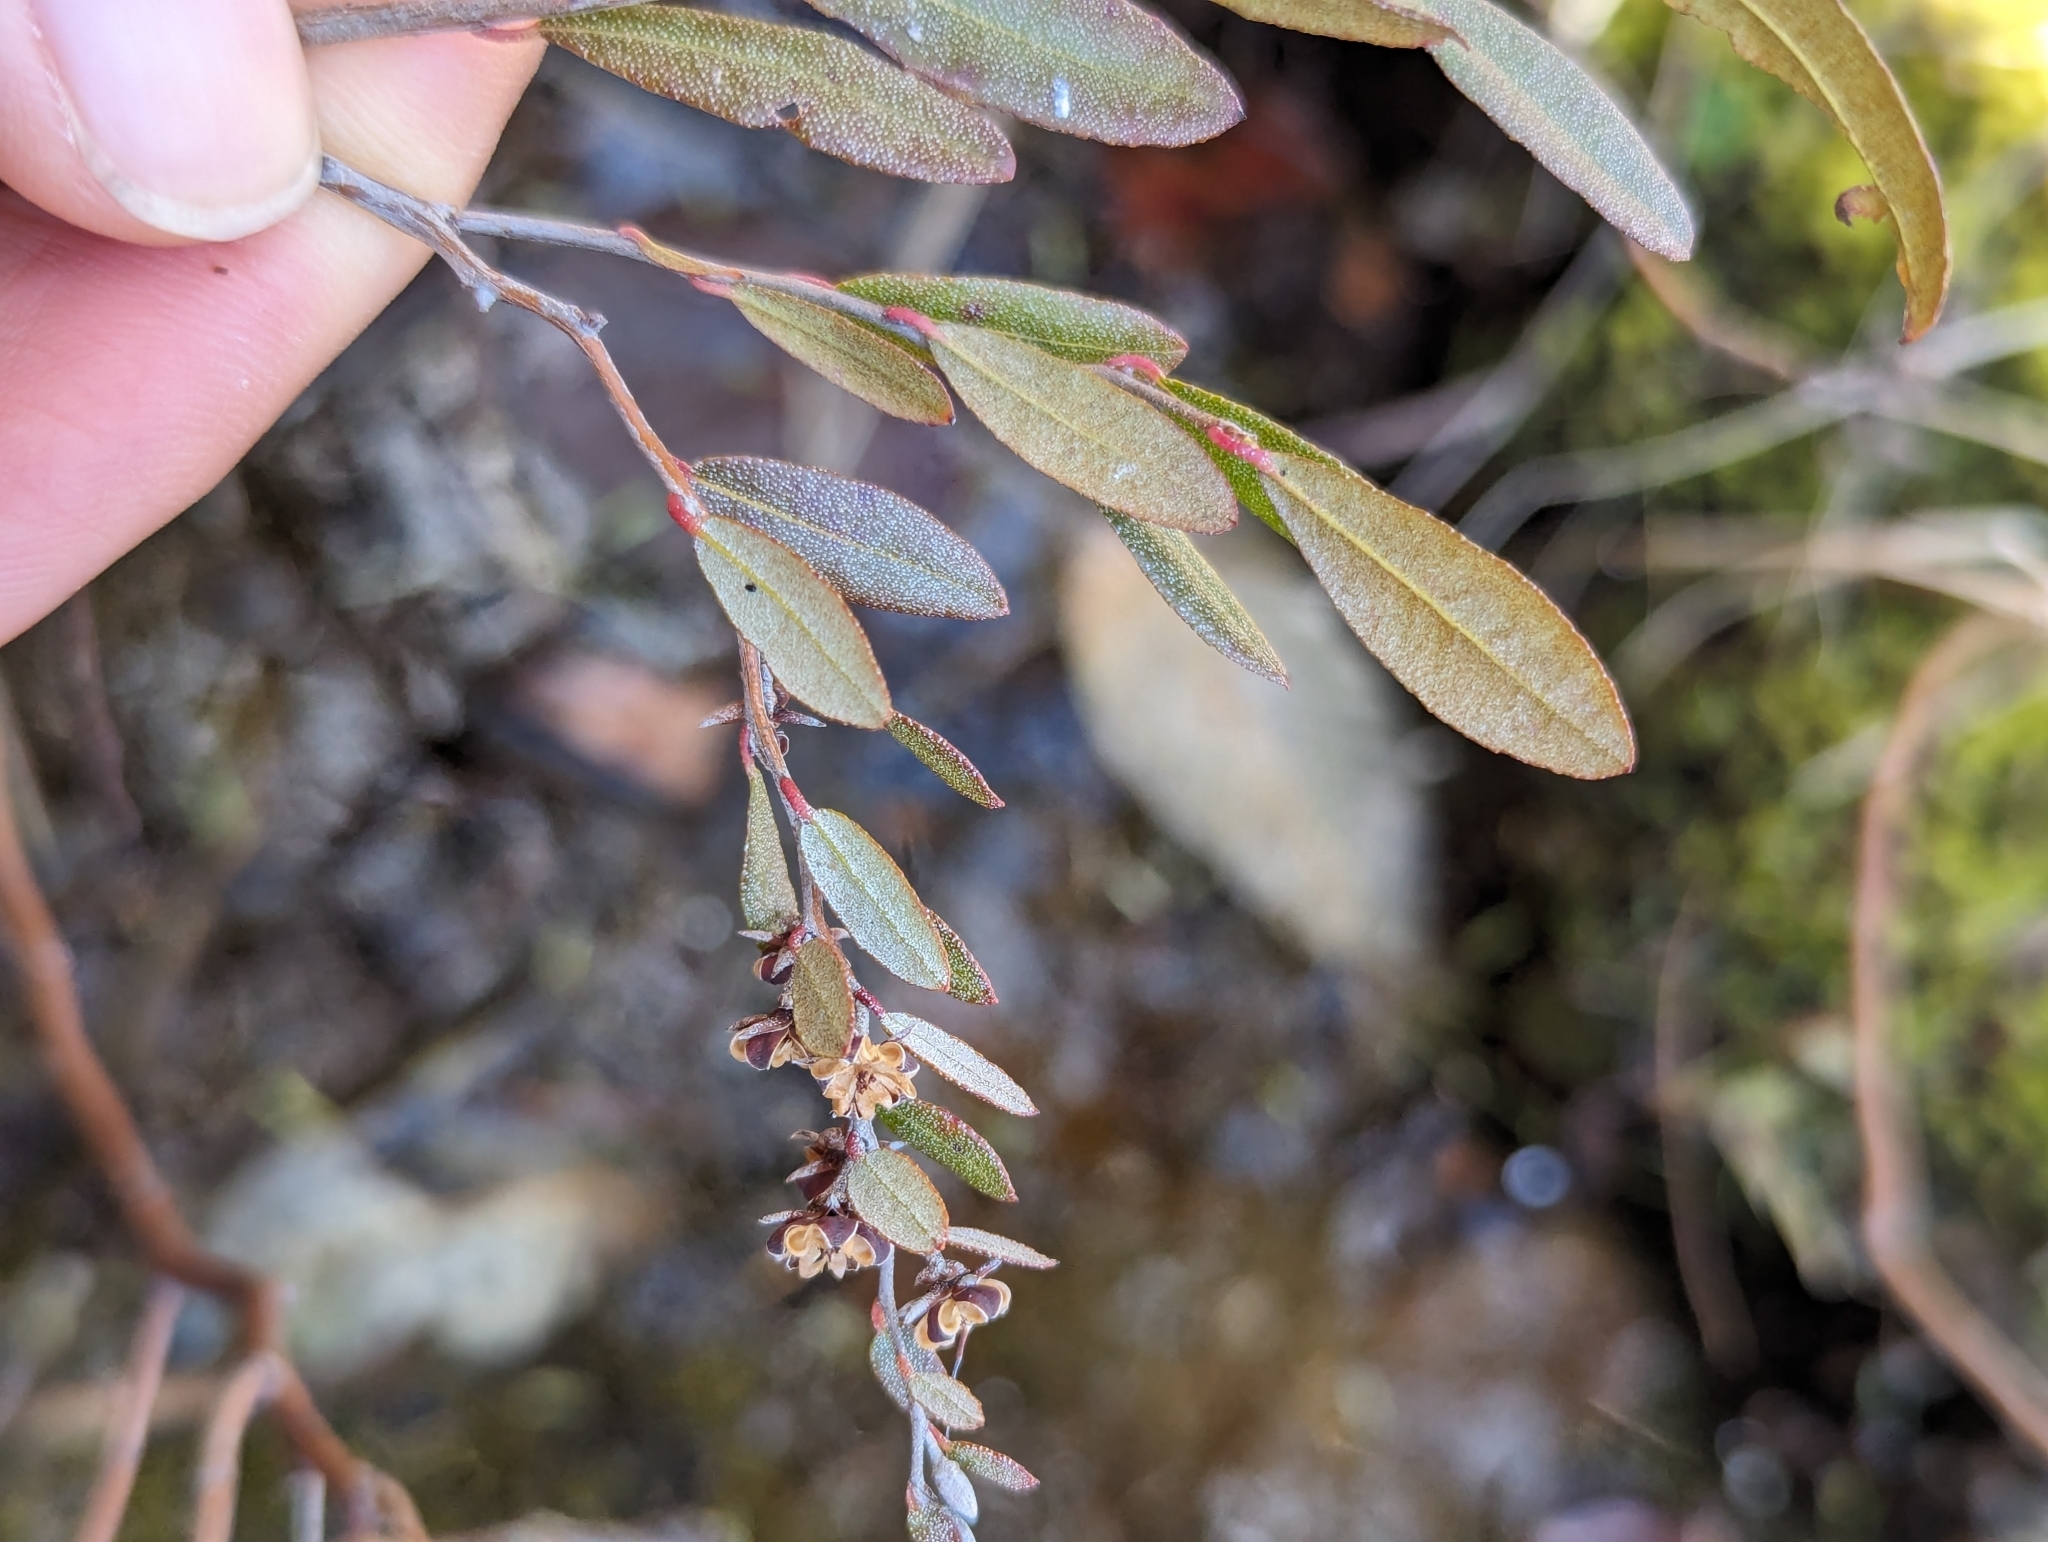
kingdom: Plantae
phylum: Tracheophyta
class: Magnoliopsida
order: Ericales
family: Ericaceae
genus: Chamaedaphne
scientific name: Chamaedaphne calyculata
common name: Leatherleaf
